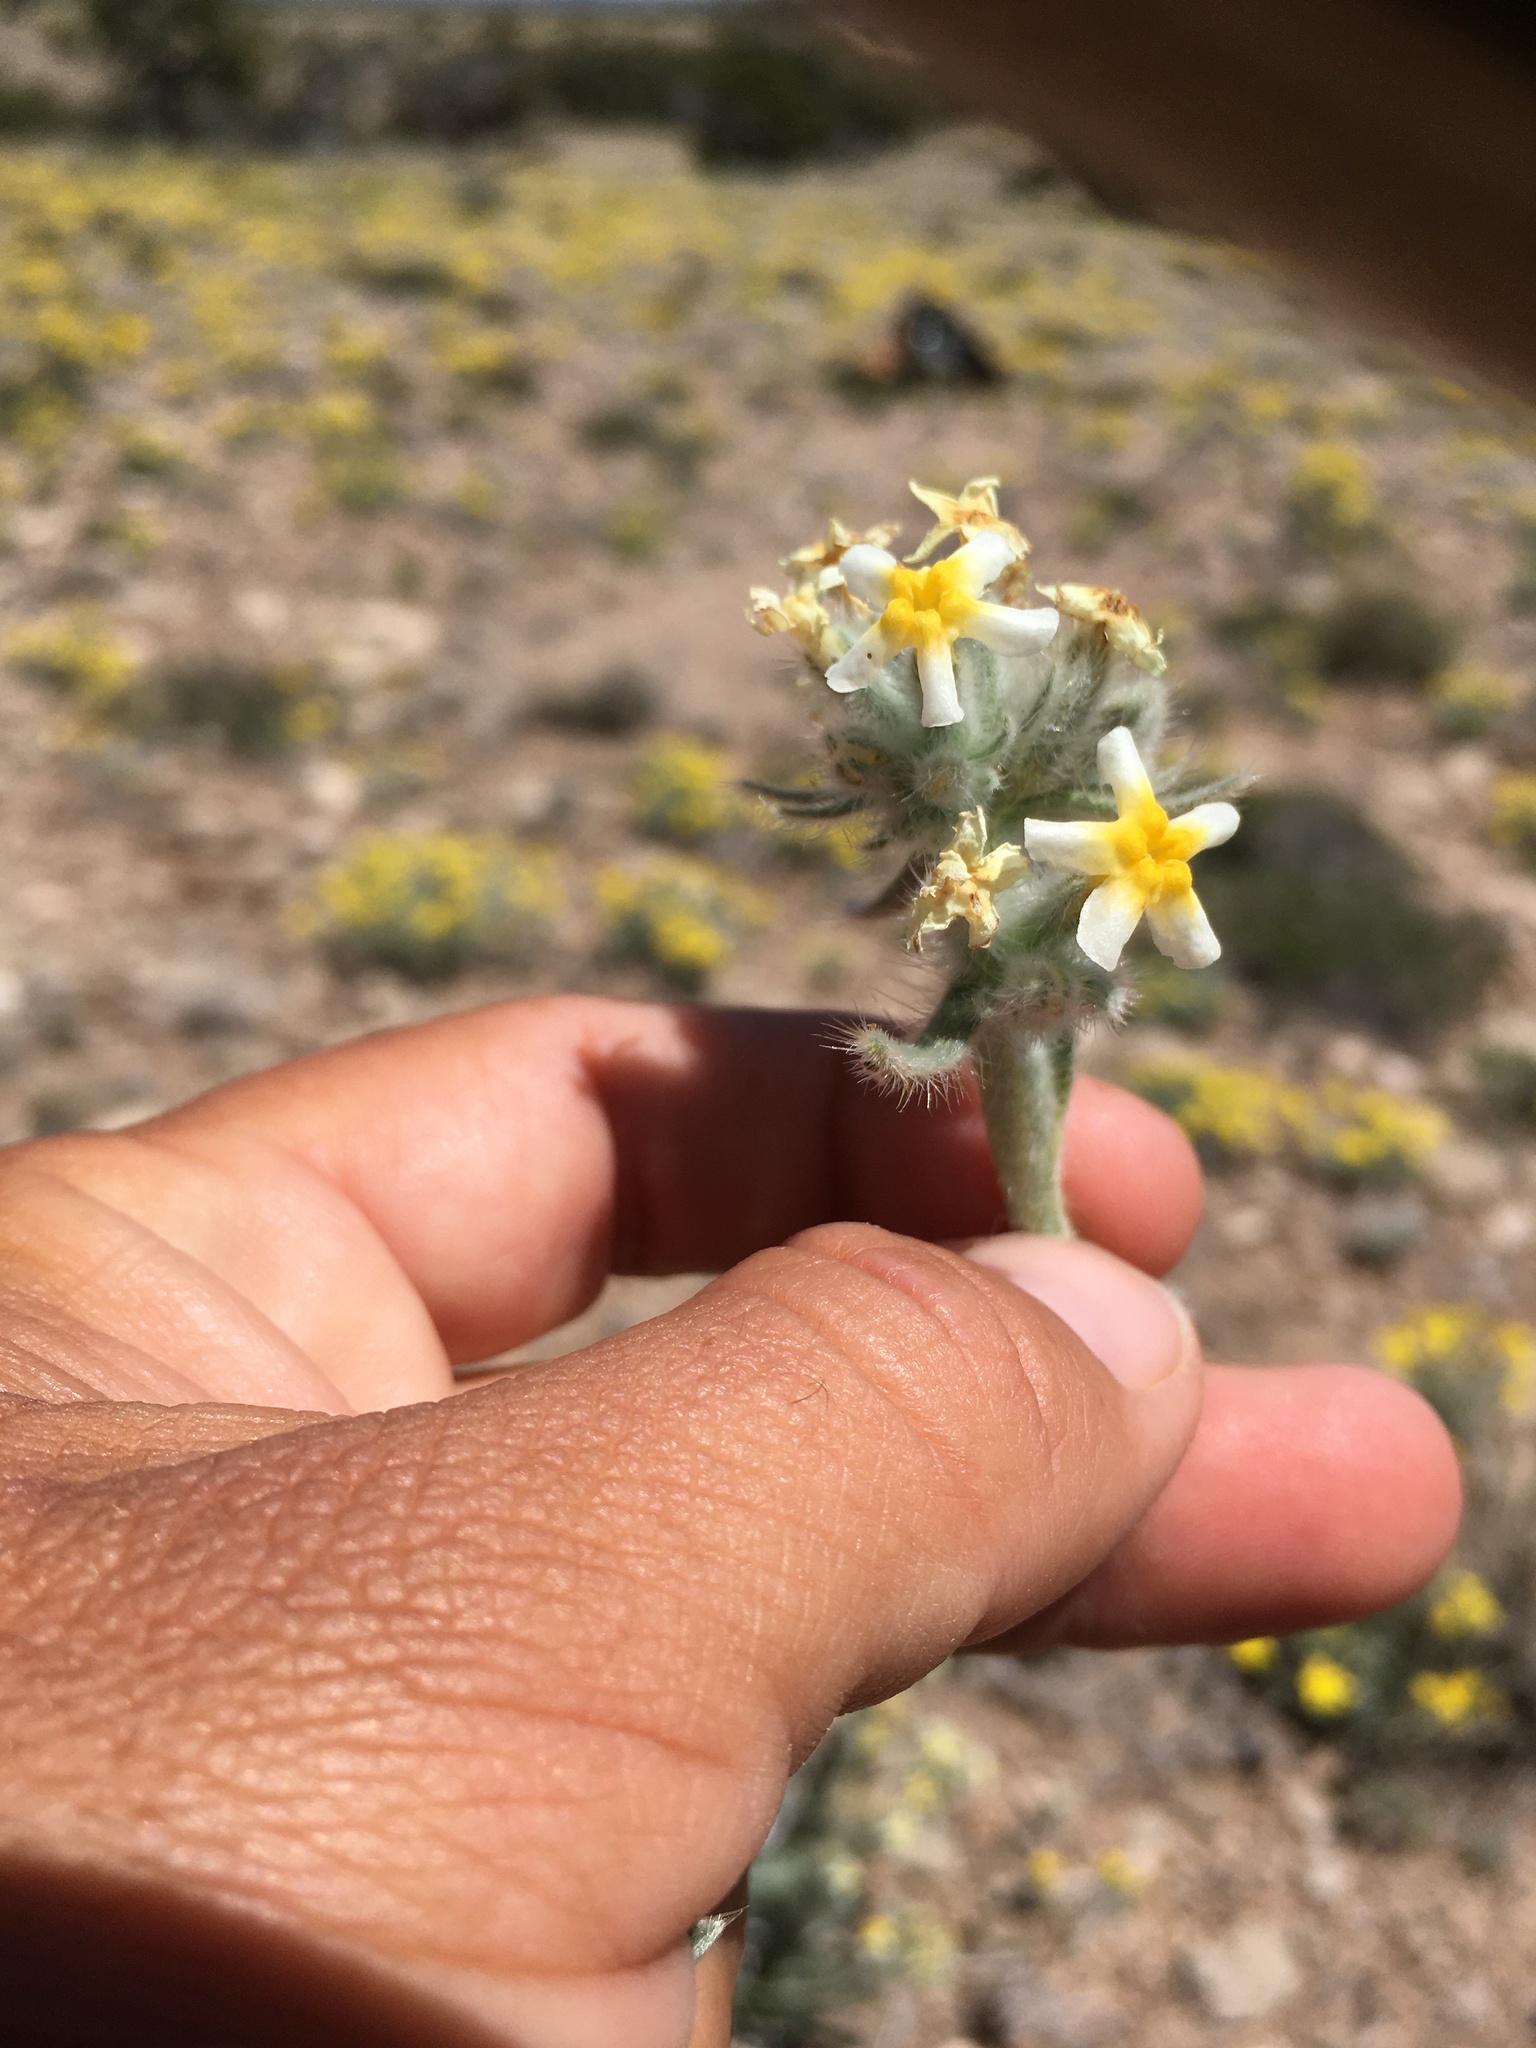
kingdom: Plantae
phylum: Tracheophyta
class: Magnoliopsida
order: Boraginales
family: Boraginaceae
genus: Oreocarya
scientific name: Oreocarya paysonii
